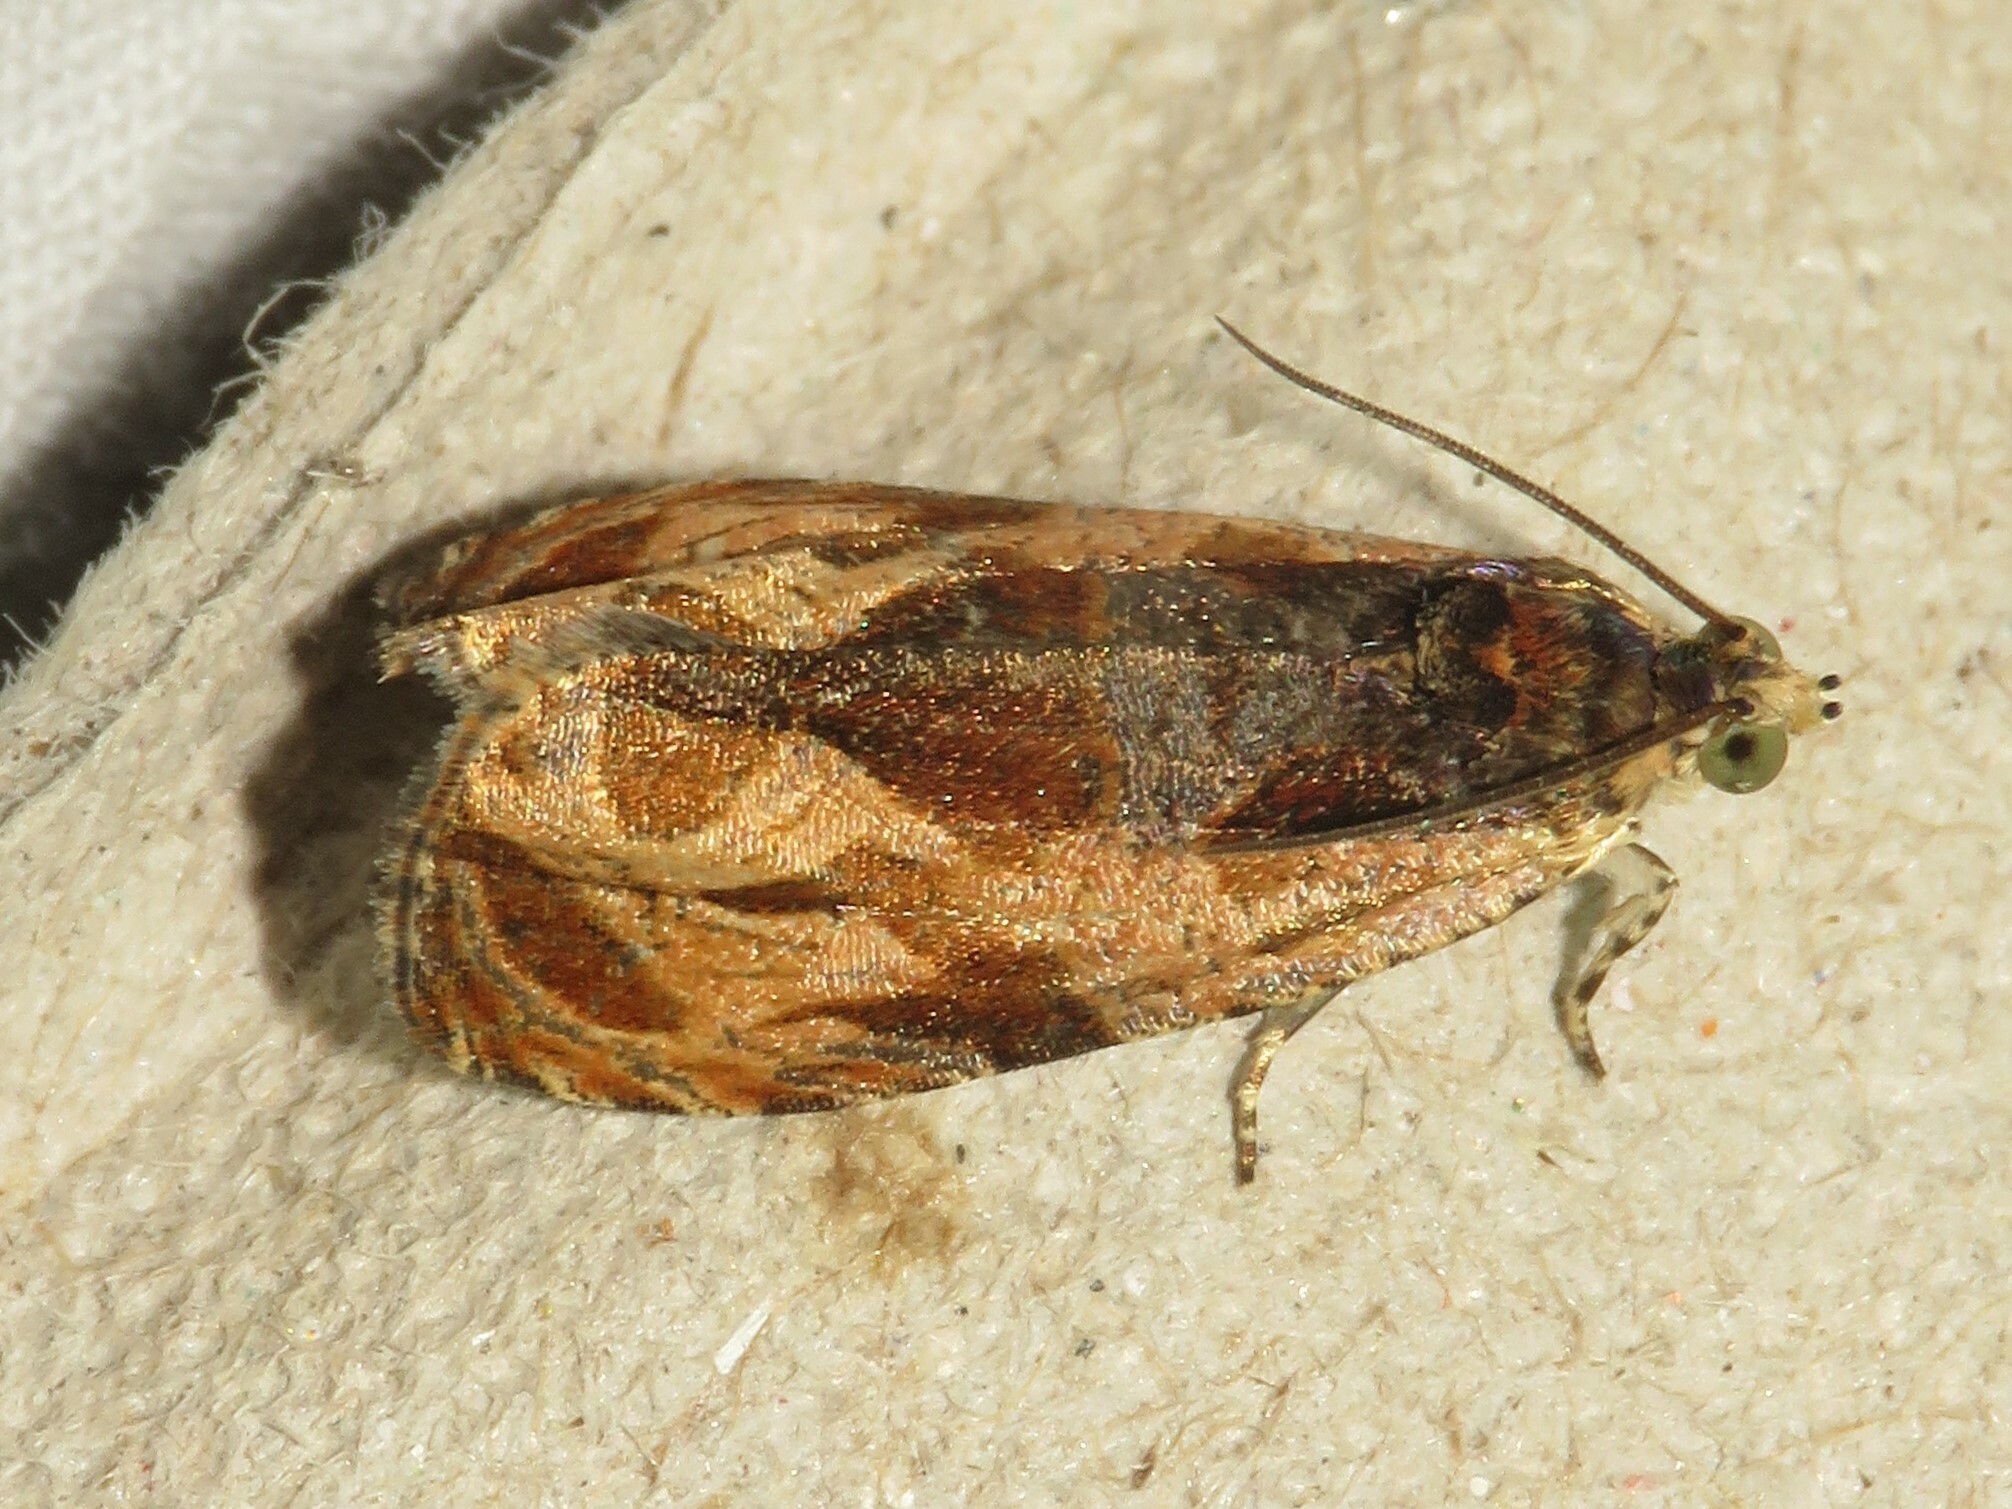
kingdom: Animalia
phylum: Arthropoda
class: Insecta
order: Lepidoptera
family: Tortricidae
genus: Olethreutes
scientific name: Olethreutes nigranum
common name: Variable nigranum moth
